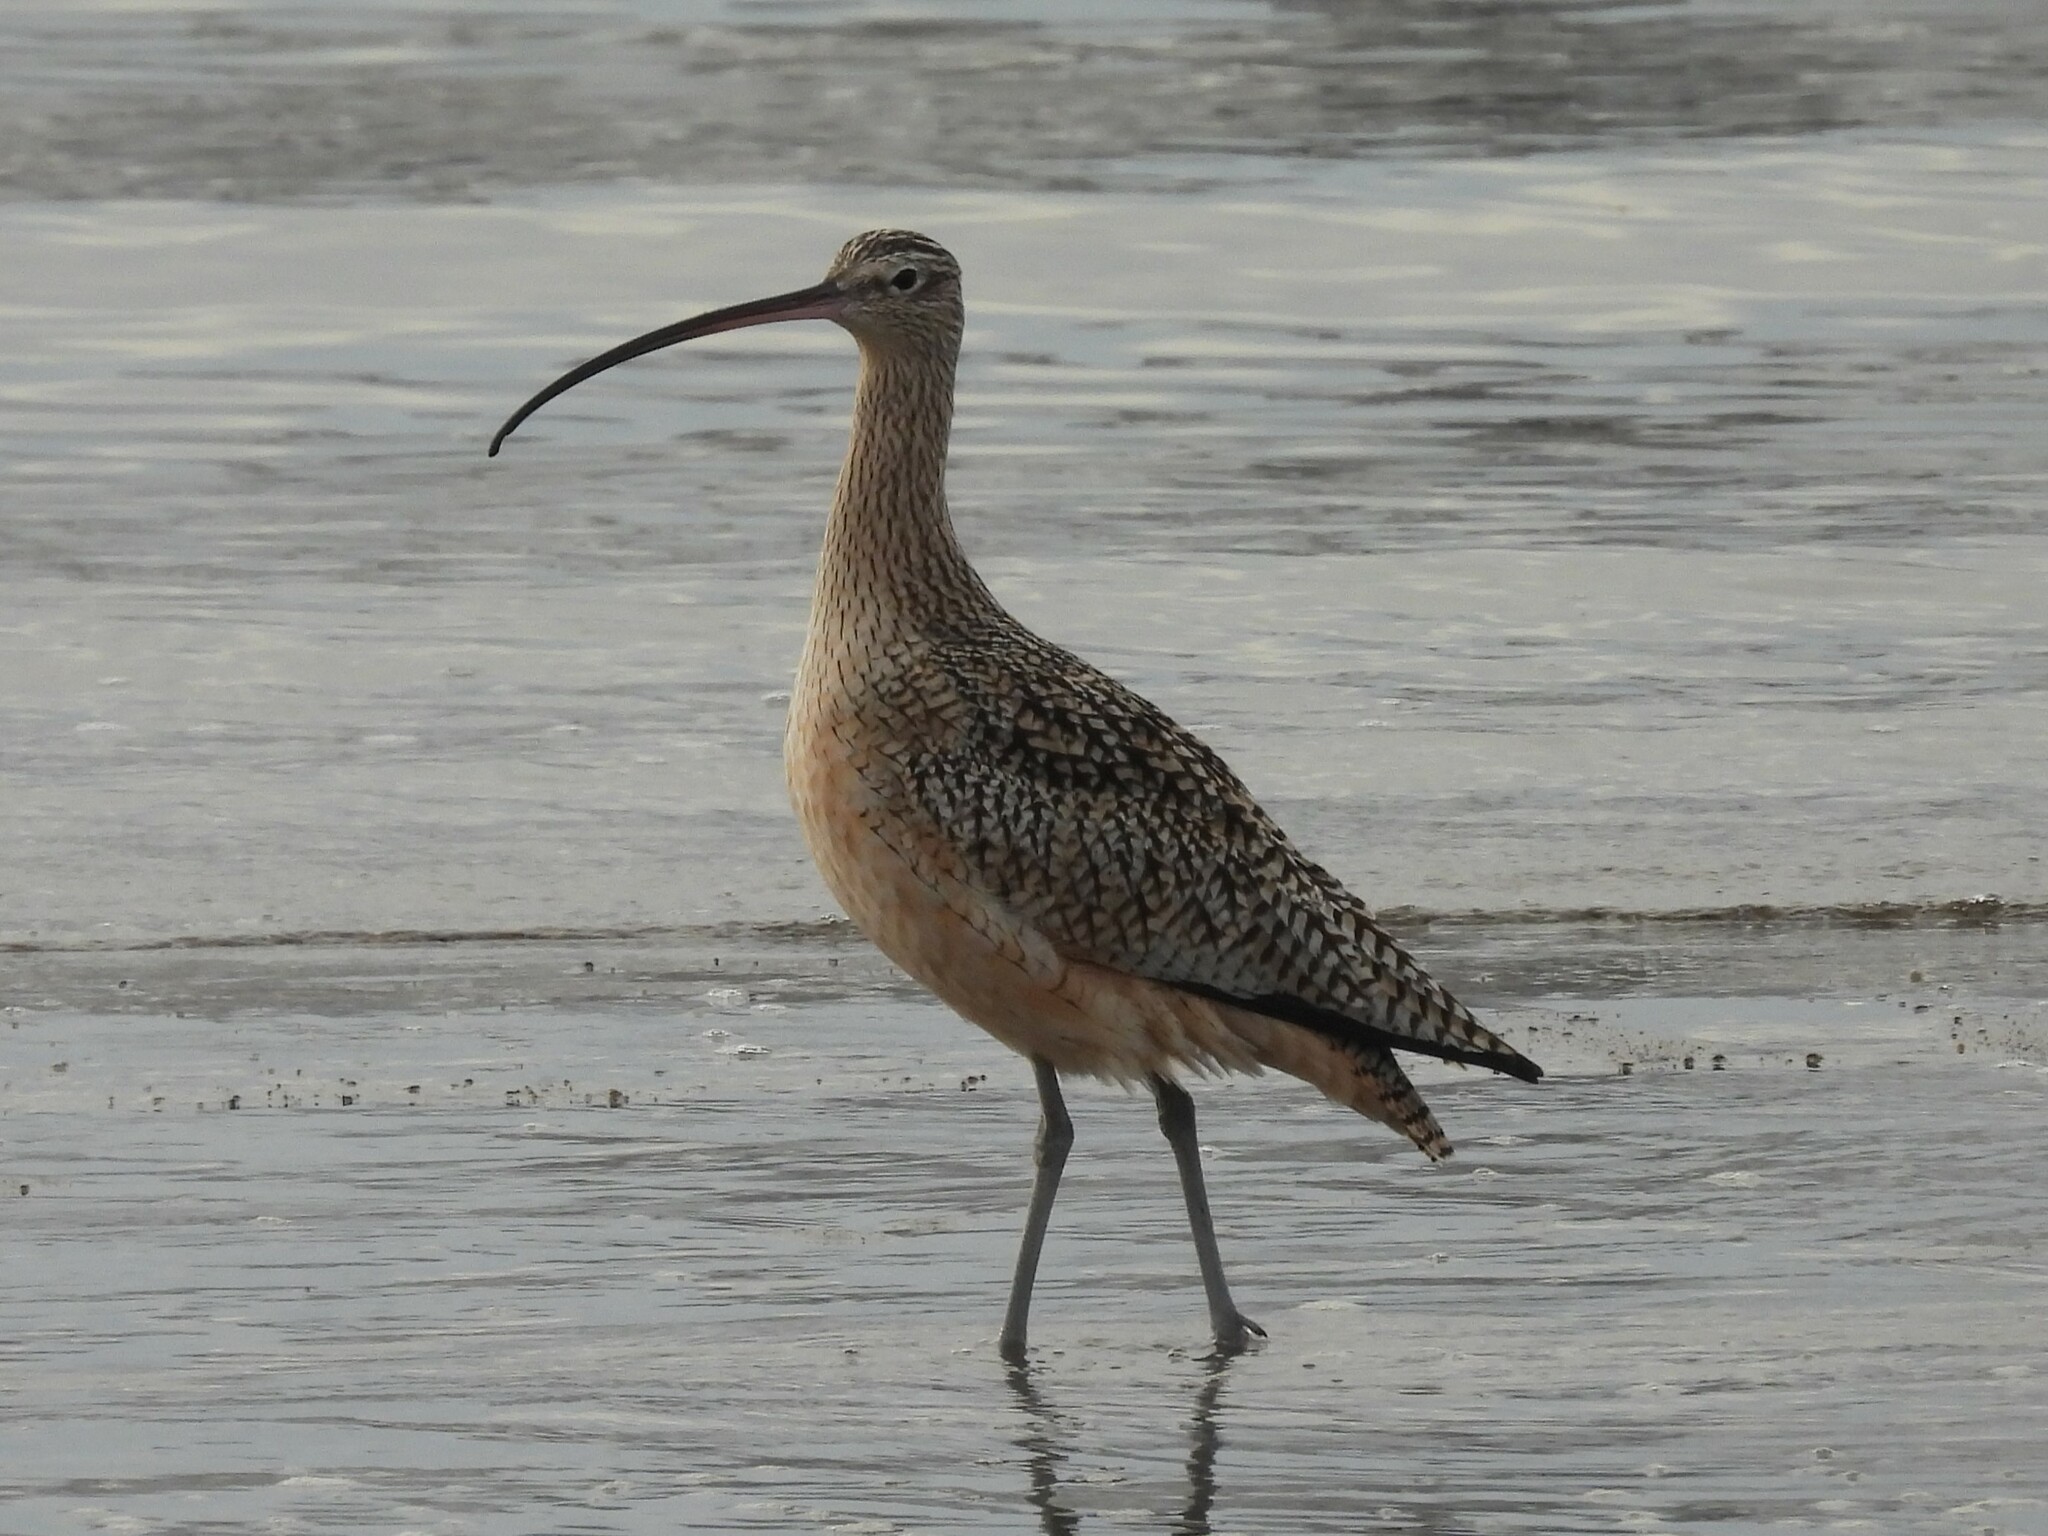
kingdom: Animalia
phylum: Chordata
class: Aves
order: Charadriiformes
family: Scolopacidae
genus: Numenius
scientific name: Numenius americanus
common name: Long-billed curlew
